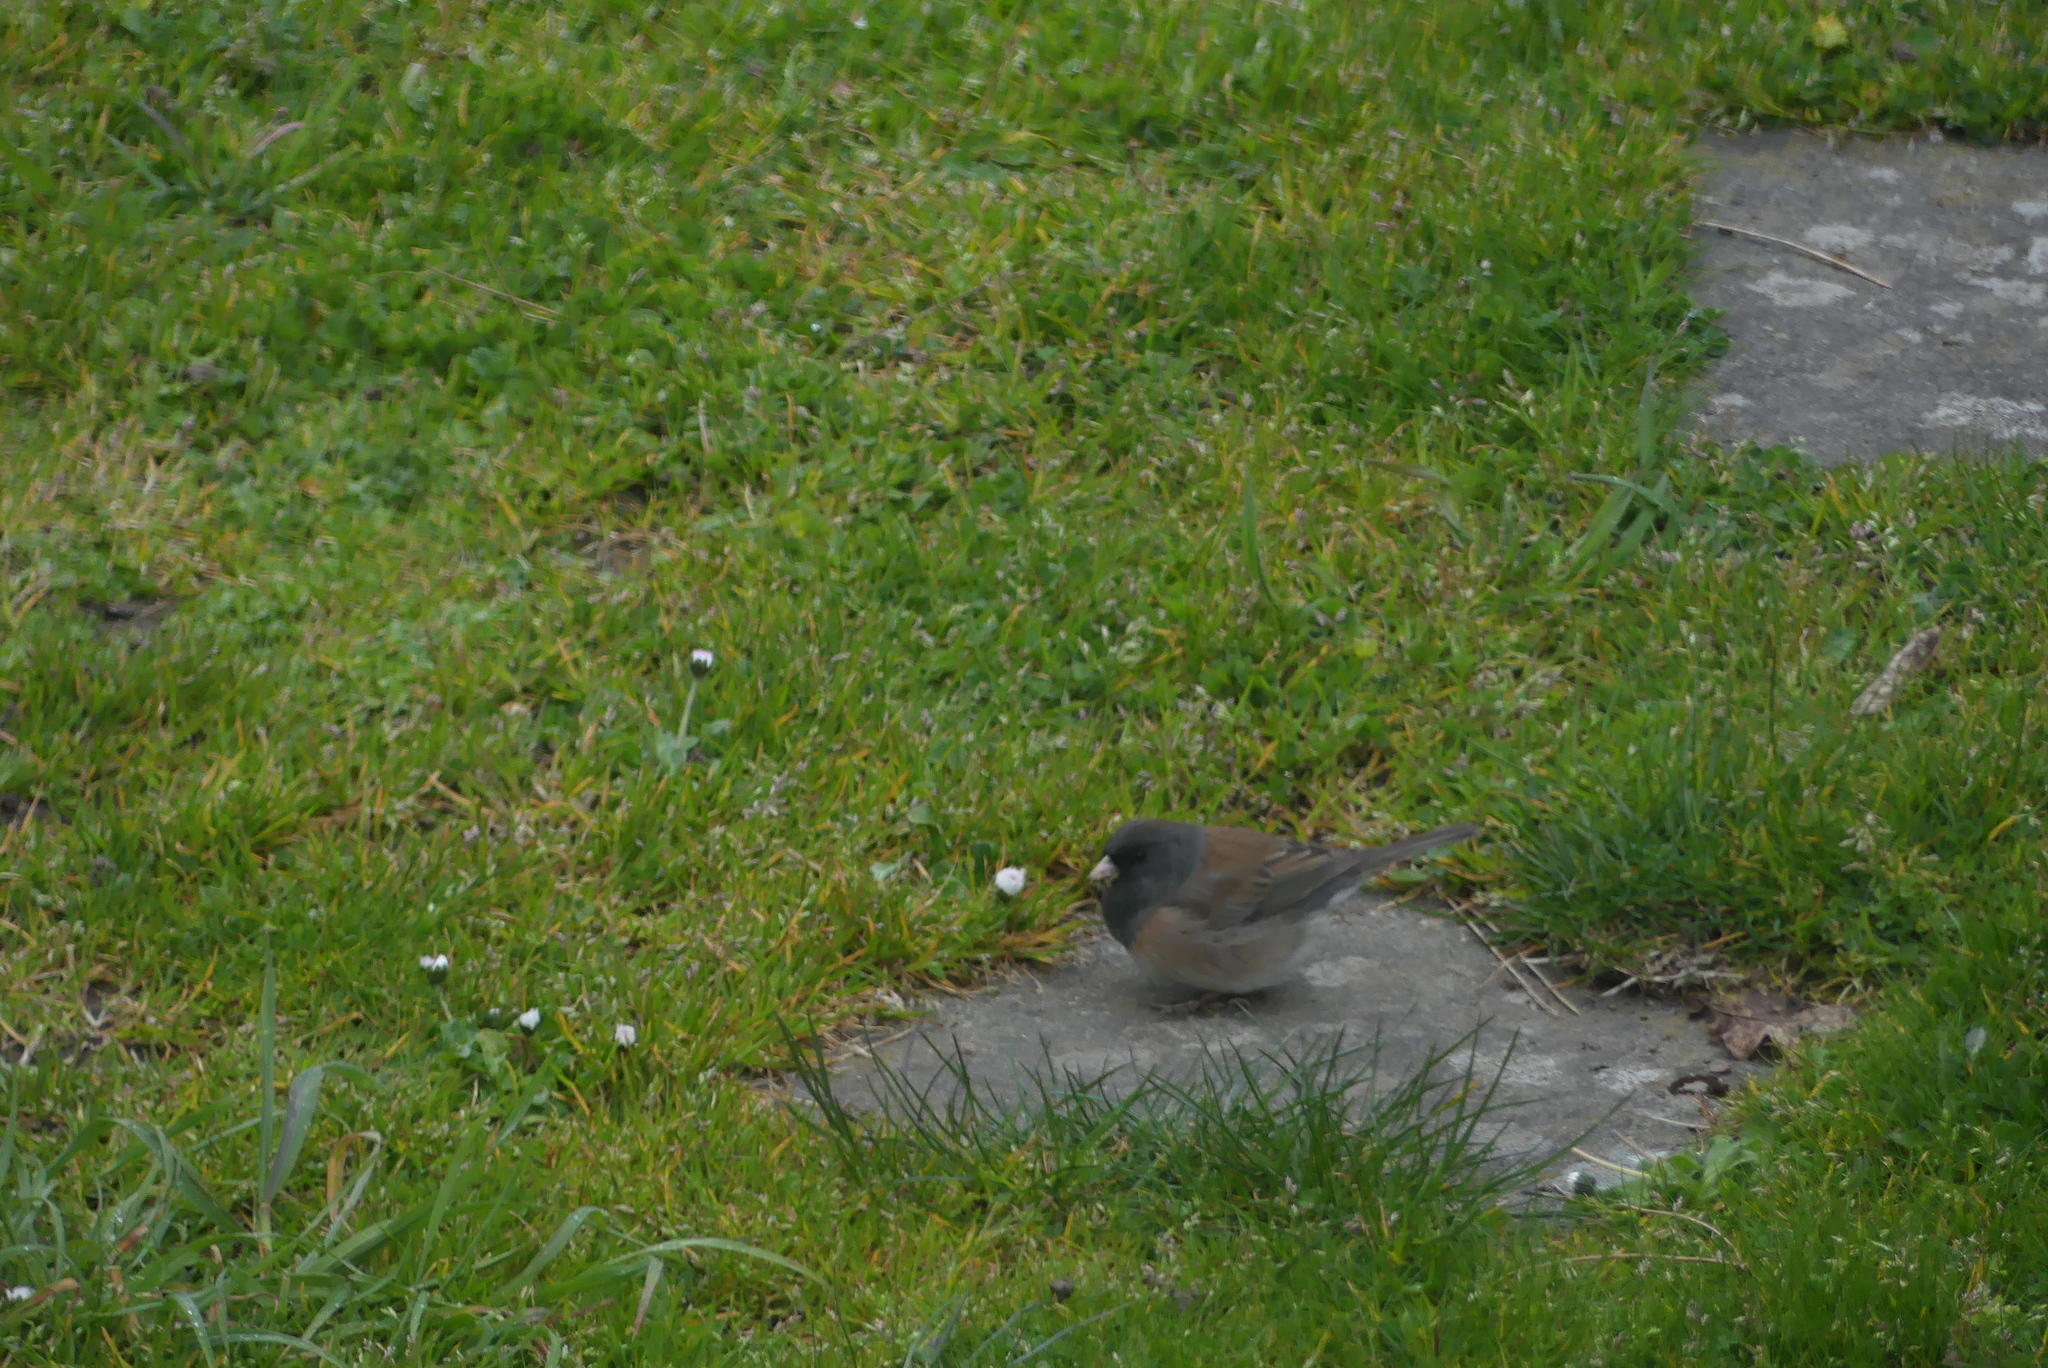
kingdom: Animalia
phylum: Chordata
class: Aves
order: Passeriformes
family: Passerellidae
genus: Junco
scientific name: Junco hyemalis
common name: Dark-eyed junco
